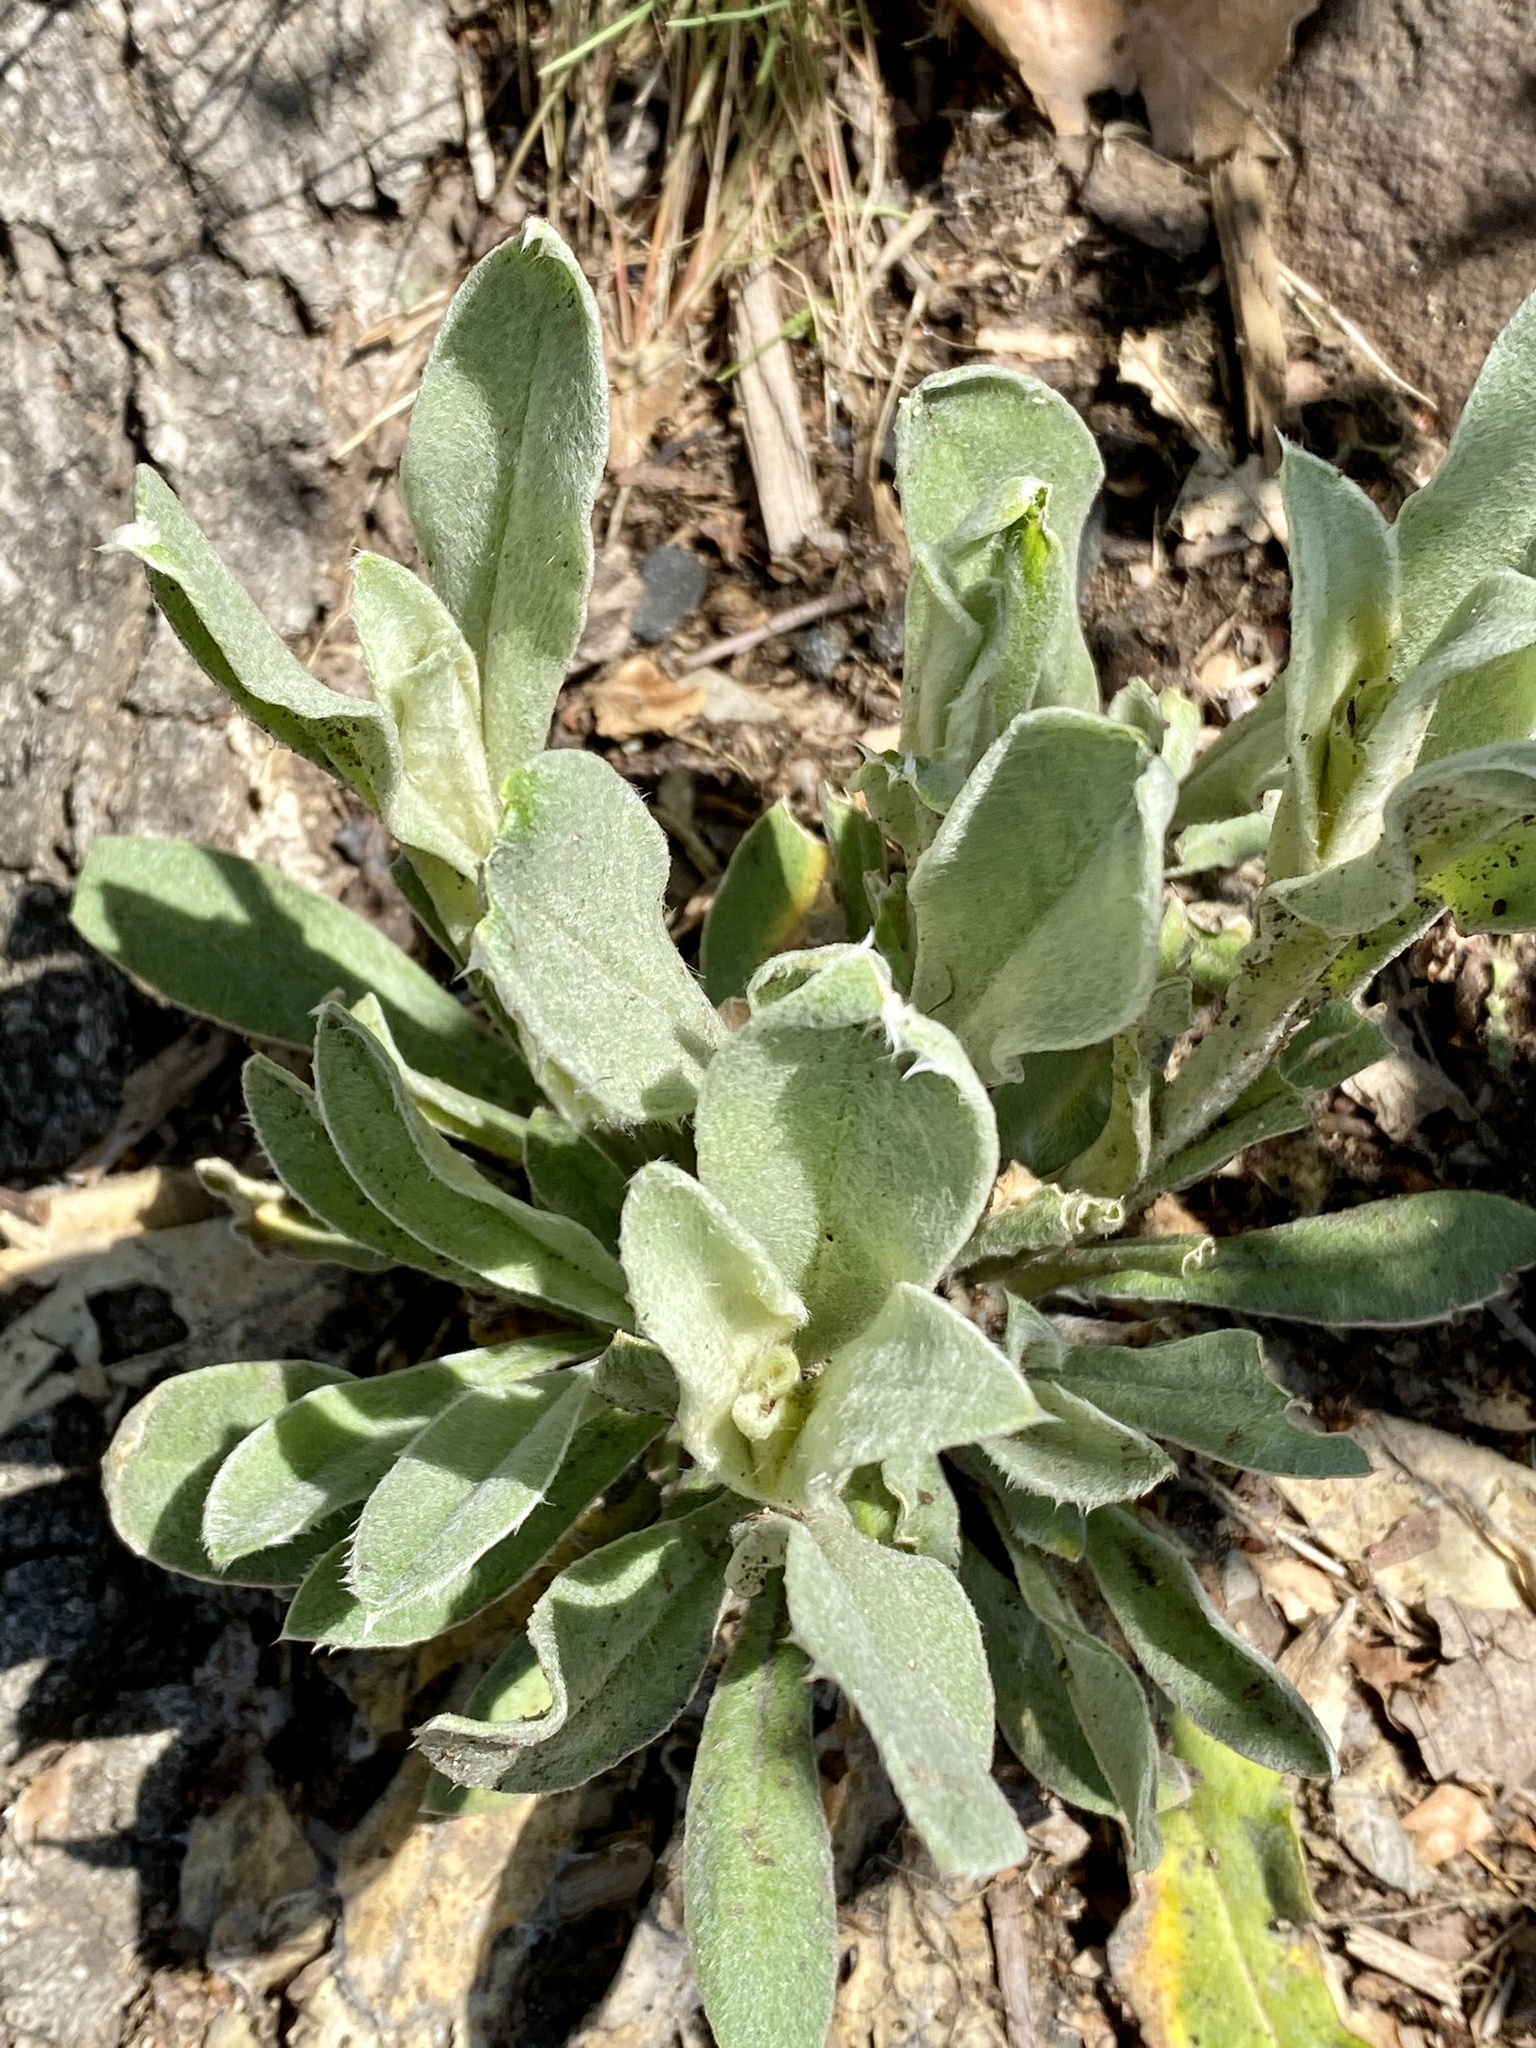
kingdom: Plantae
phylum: Tracheophyta
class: Magnoliopsida
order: Caryophyllales
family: Caryophyllaceae
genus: Silene
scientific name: Silene coronaria
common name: Rose campion
